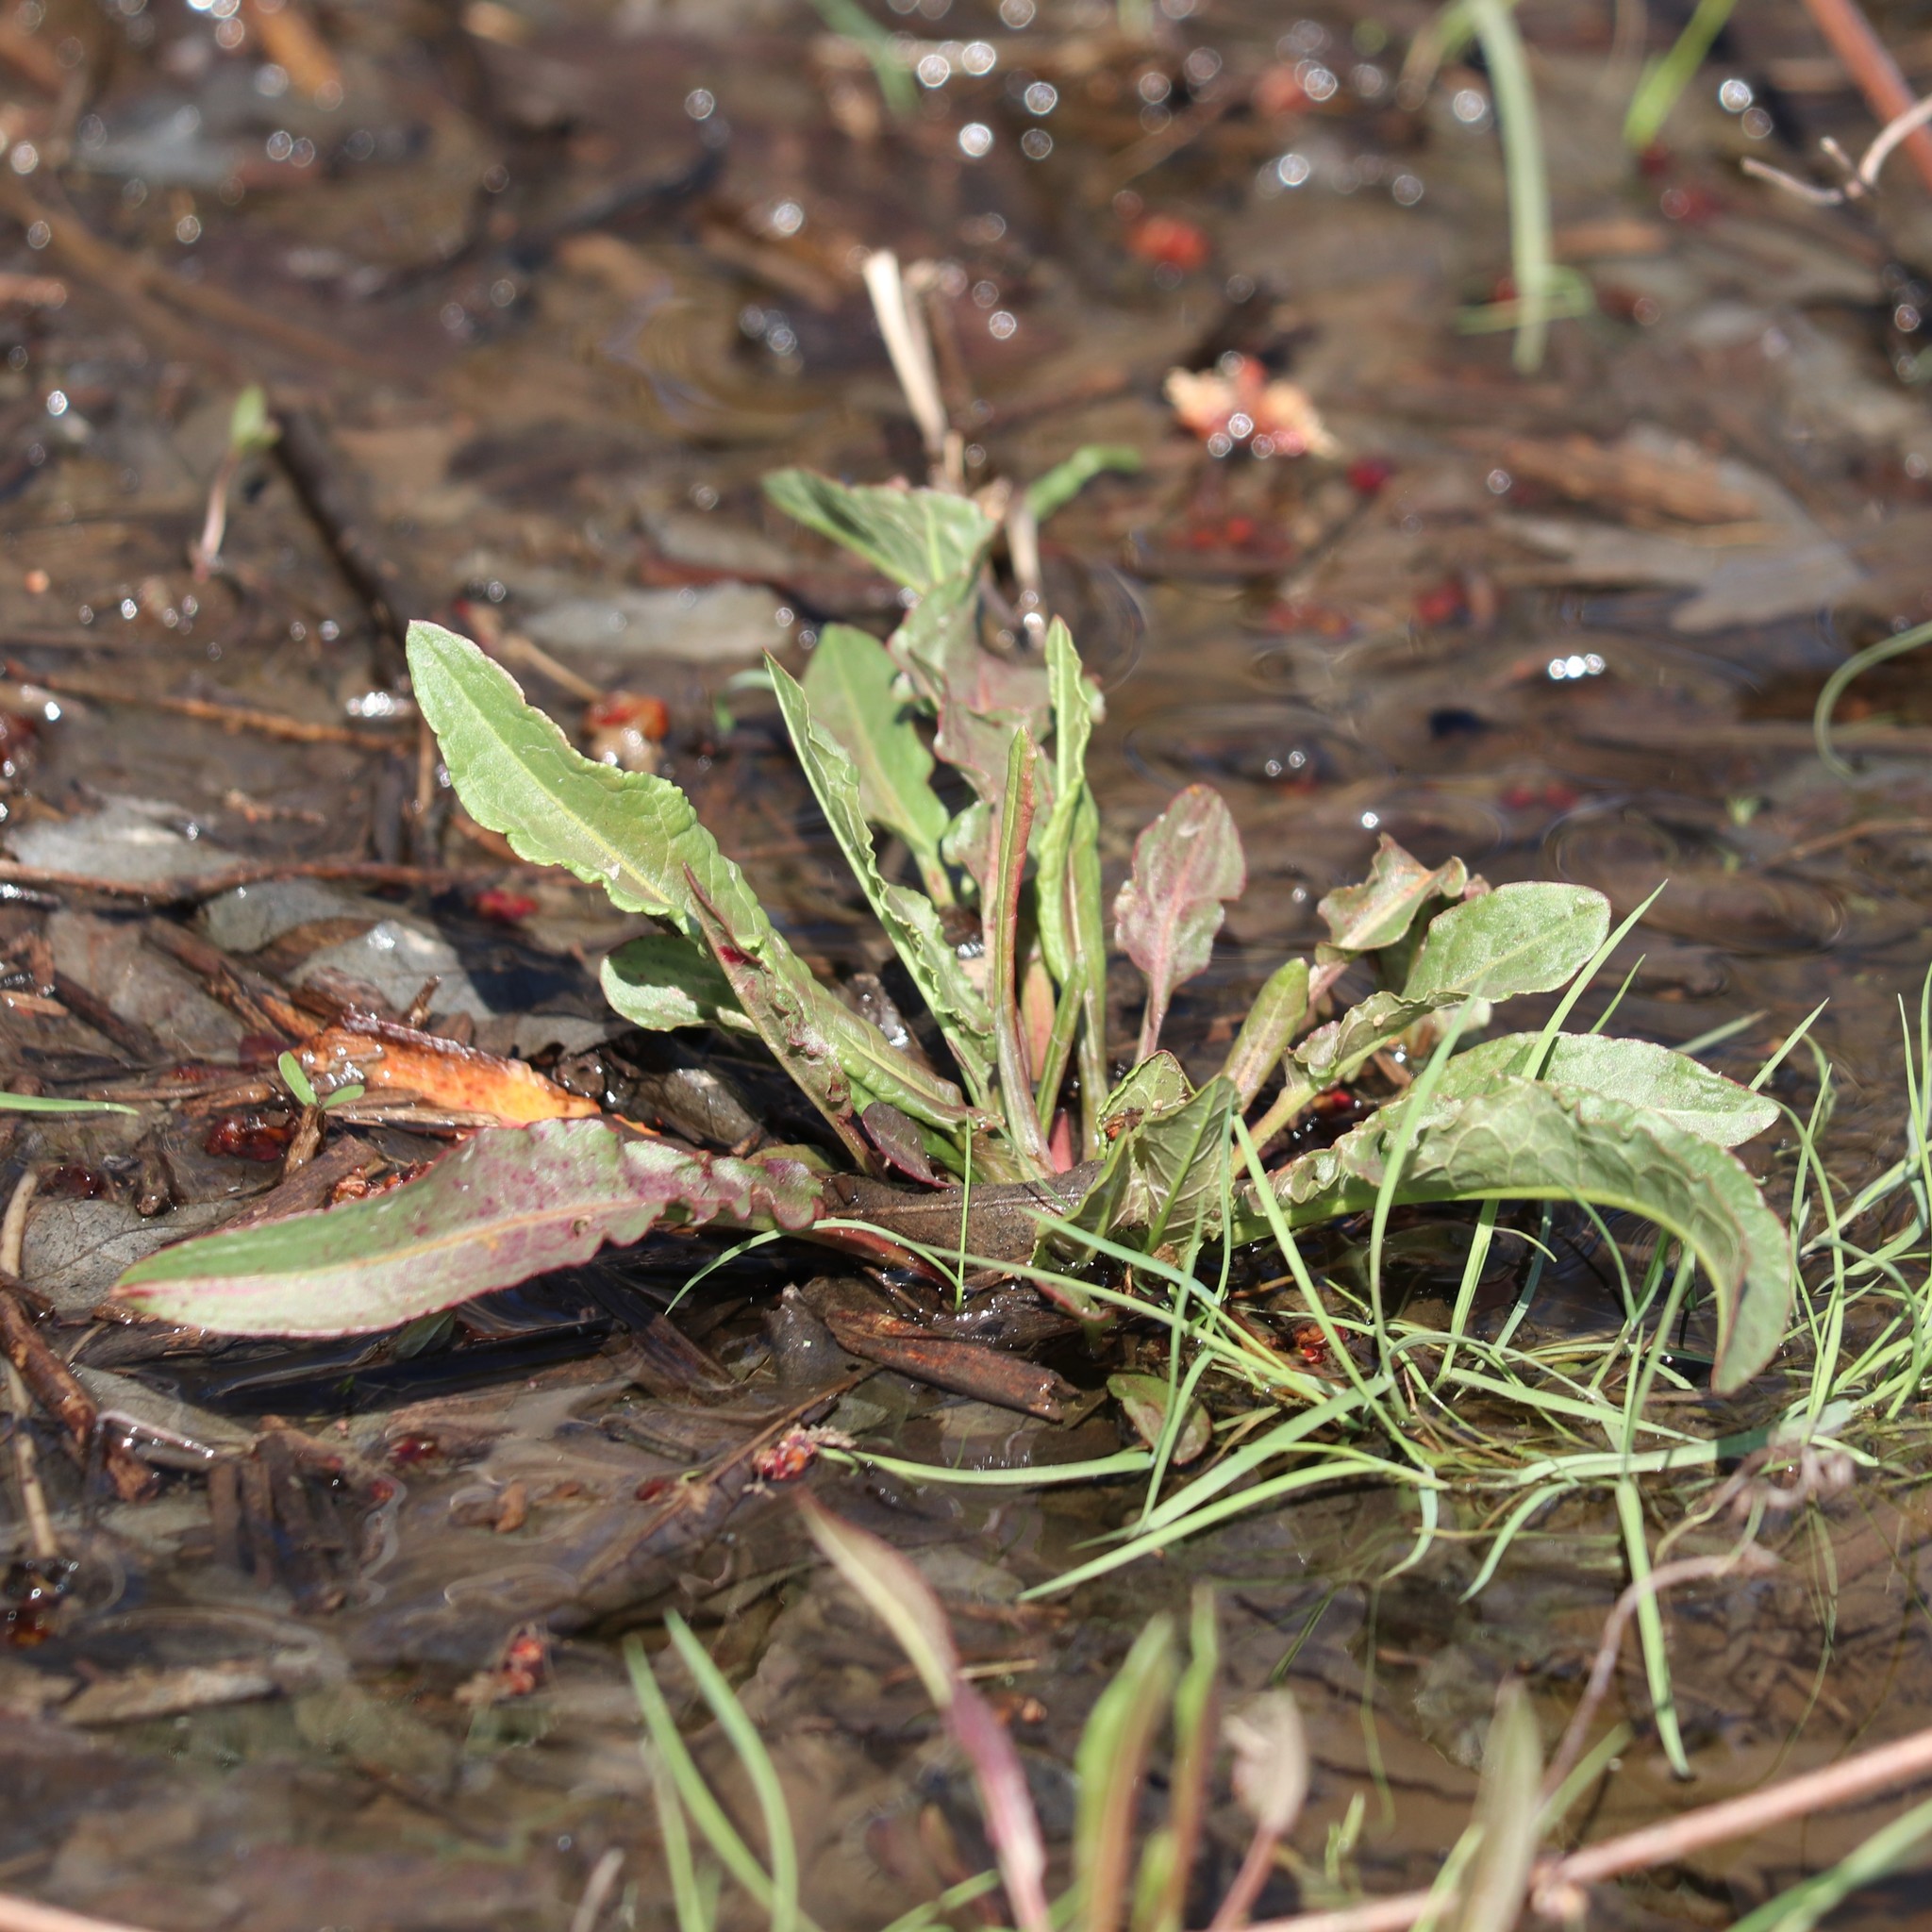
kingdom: Plantae
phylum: Tracheophyta
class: Magnoliopsida
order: Caryophyllales
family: Polygonaceae
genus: Rumex
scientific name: Rumex crispus
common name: Curled dock
